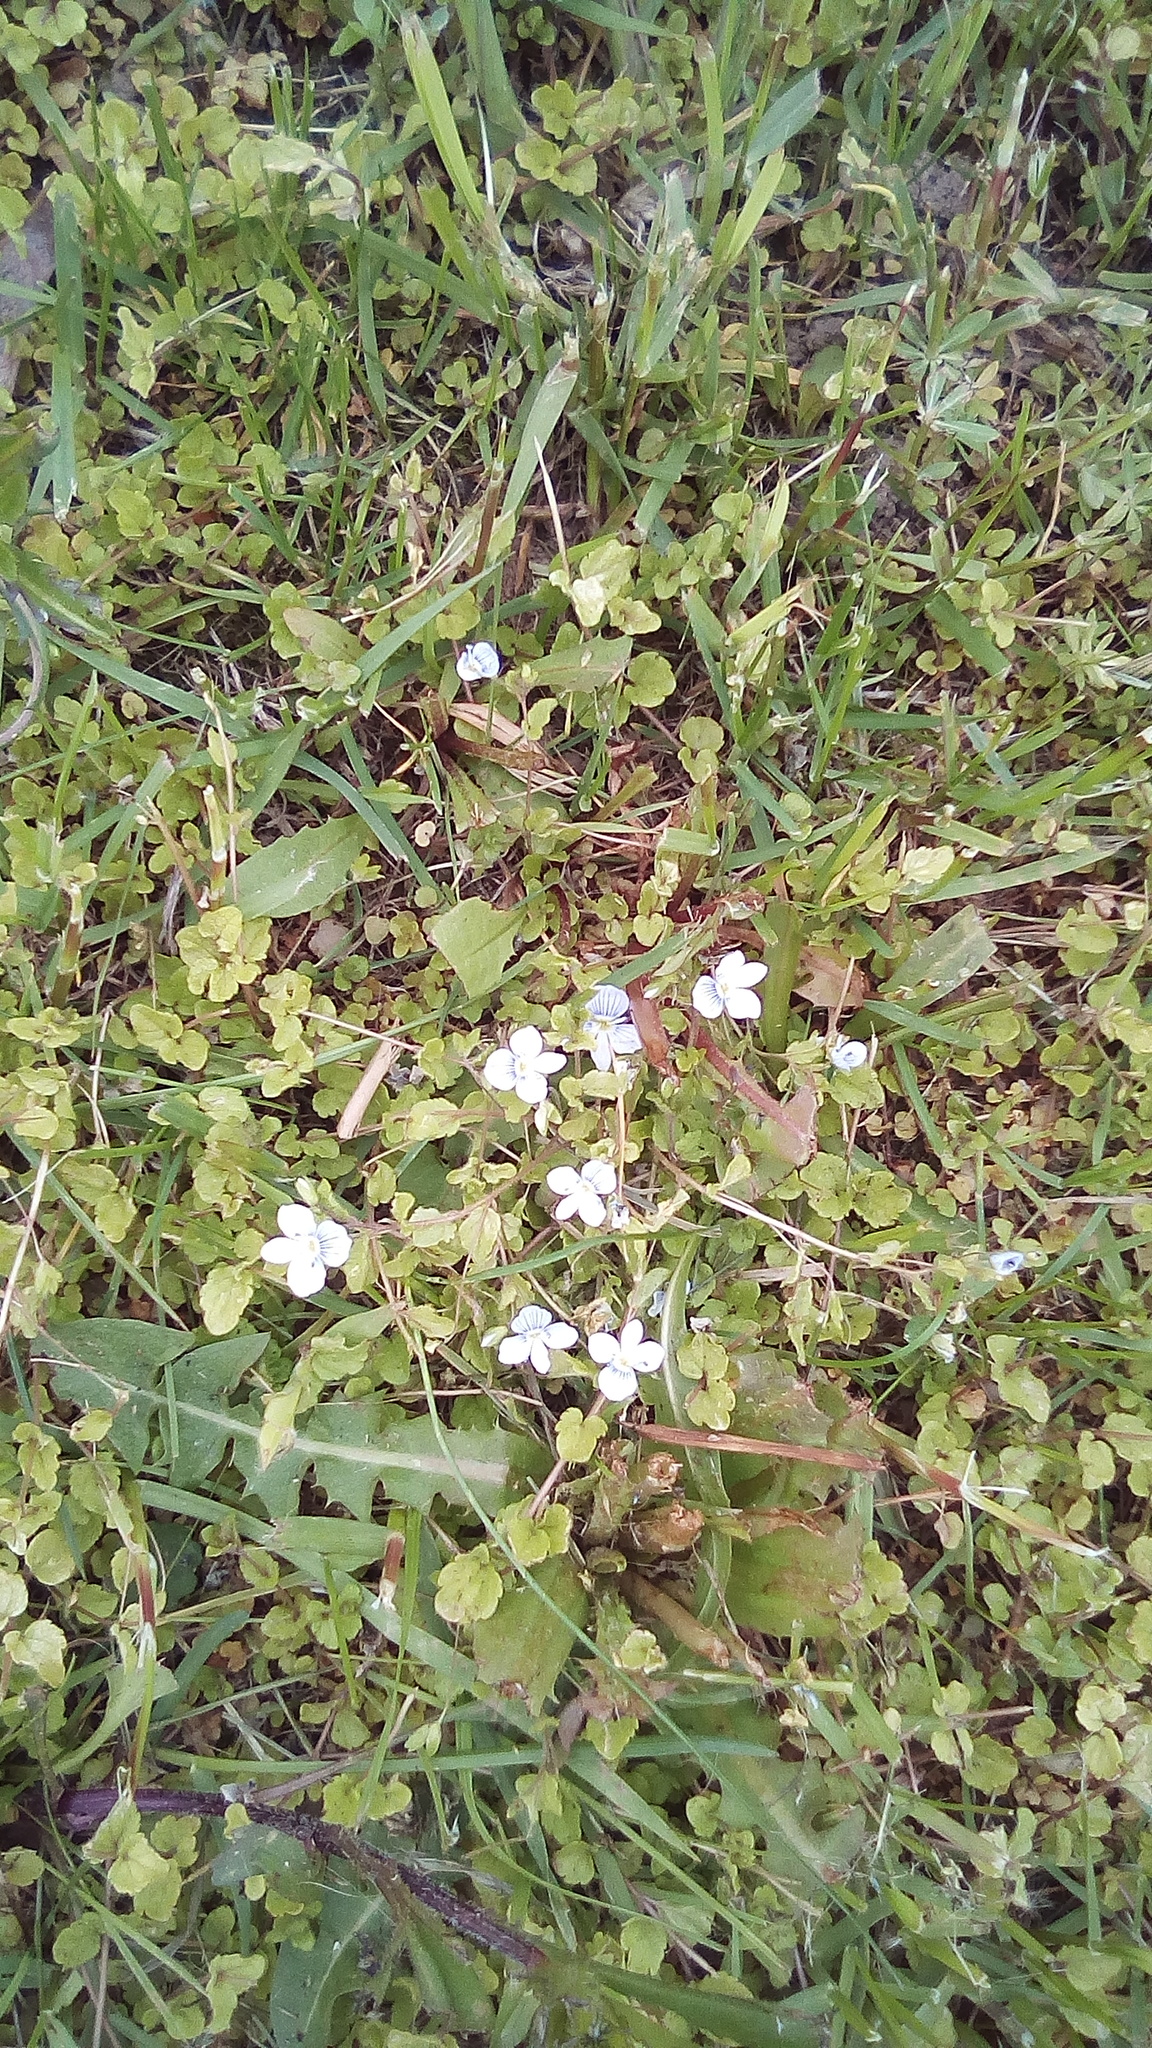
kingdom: Plantae
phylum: Tracheophyta
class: Magnoliopsida
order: Lamiales
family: Plantaginaceae
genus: Veronica
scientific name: Veronica filiformis
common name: Slender speedwell
